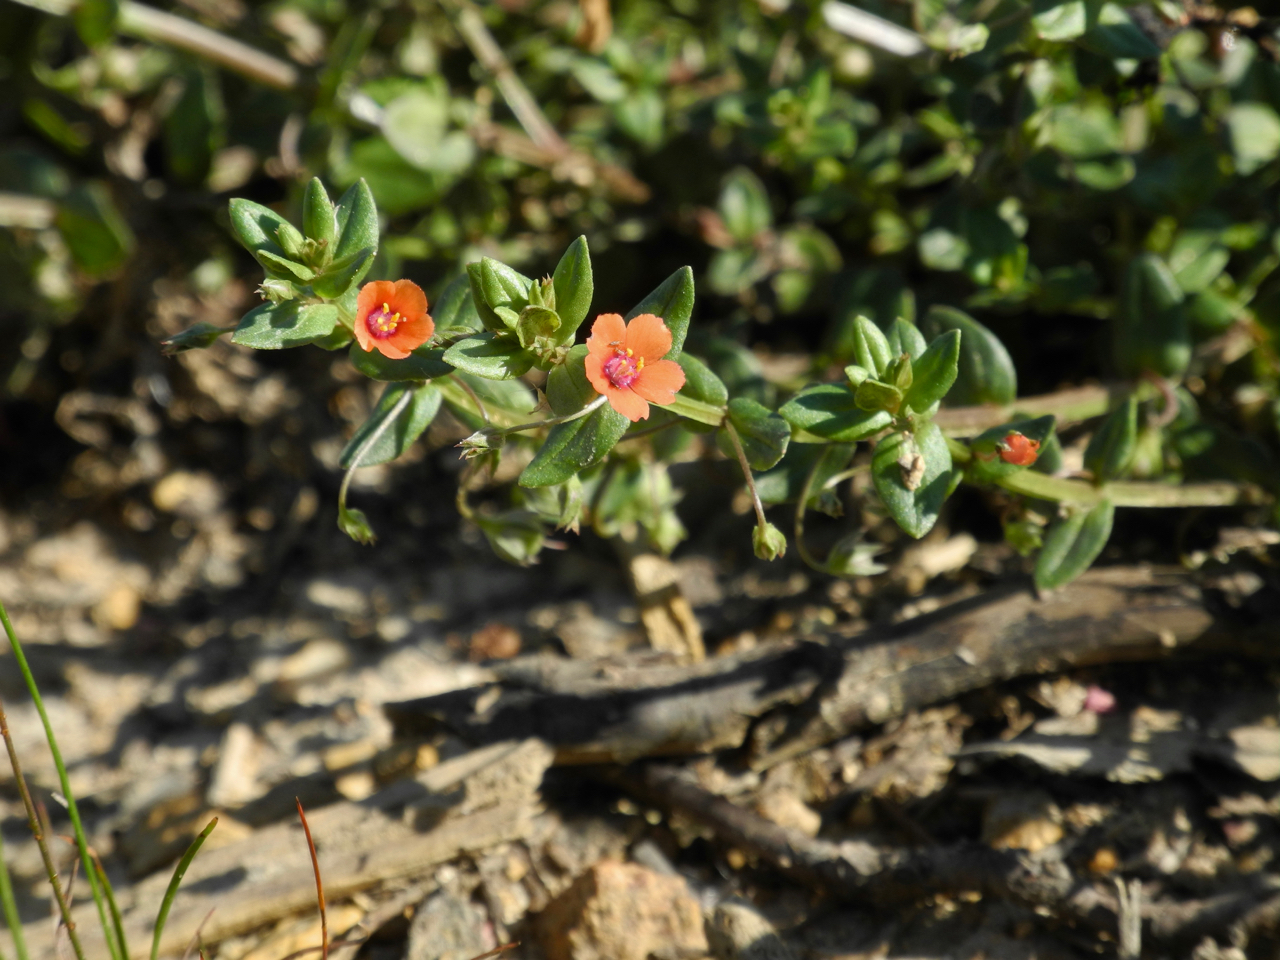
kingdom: Plantae
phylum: Tracheophyta
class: Magnoliopsida
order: Ericales
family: Primulaceae
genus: Lysimachia
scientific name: Lysimachia arvensis
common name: Scarlet pimpernel
